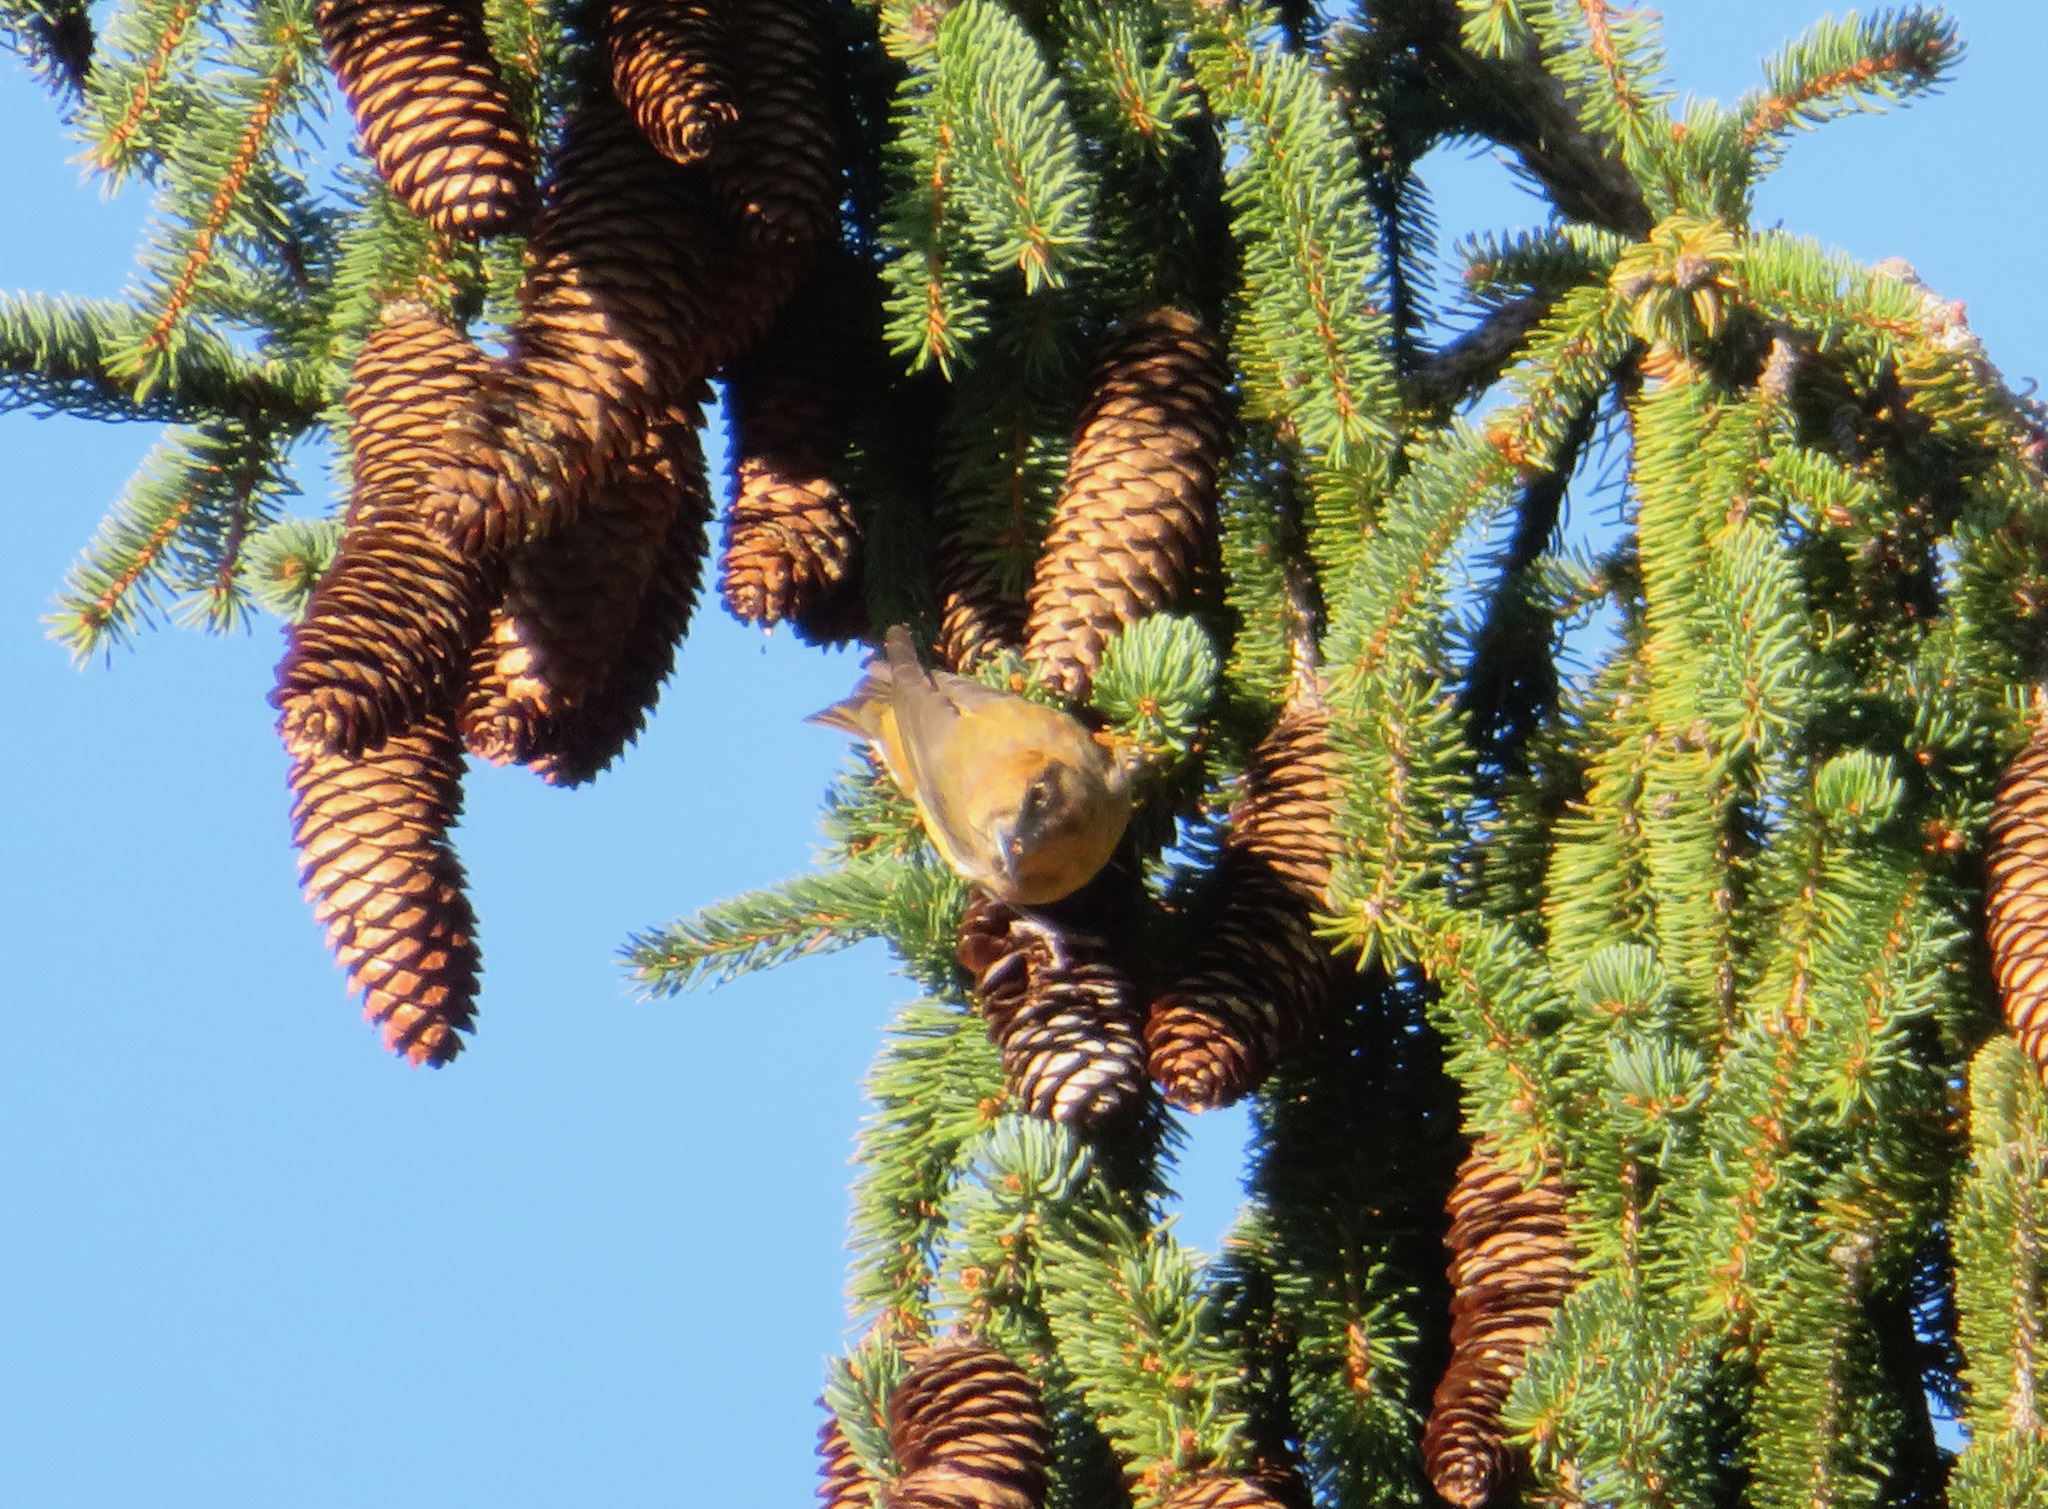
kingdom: Animalia
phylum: Chordata
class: Aves
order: Passeriformes
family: Fringillidae
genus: Loxia
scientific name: Loxia curvirostra
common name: Red crossbill
